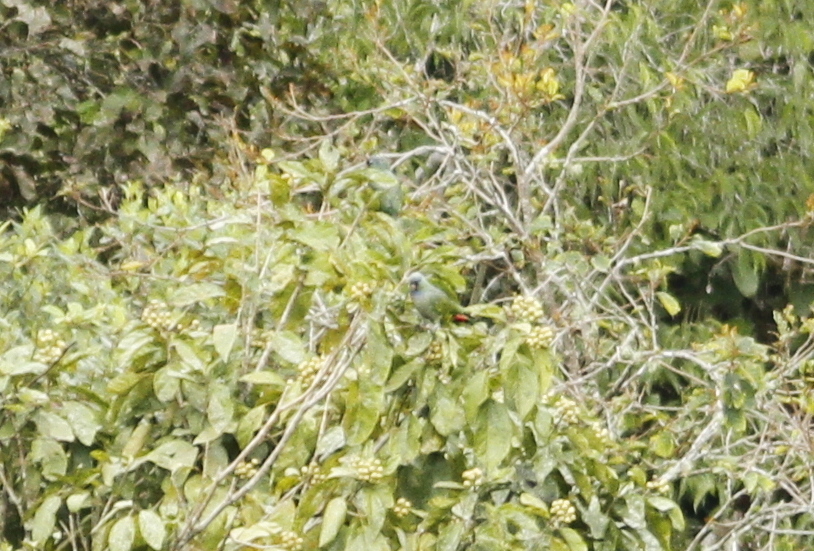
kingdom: Animalia
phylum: Chordata
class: Aves
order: Psittaciformes
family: Psittacidae
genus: Pionus
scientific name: Pionus sordidus
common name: Red-billed parrot
